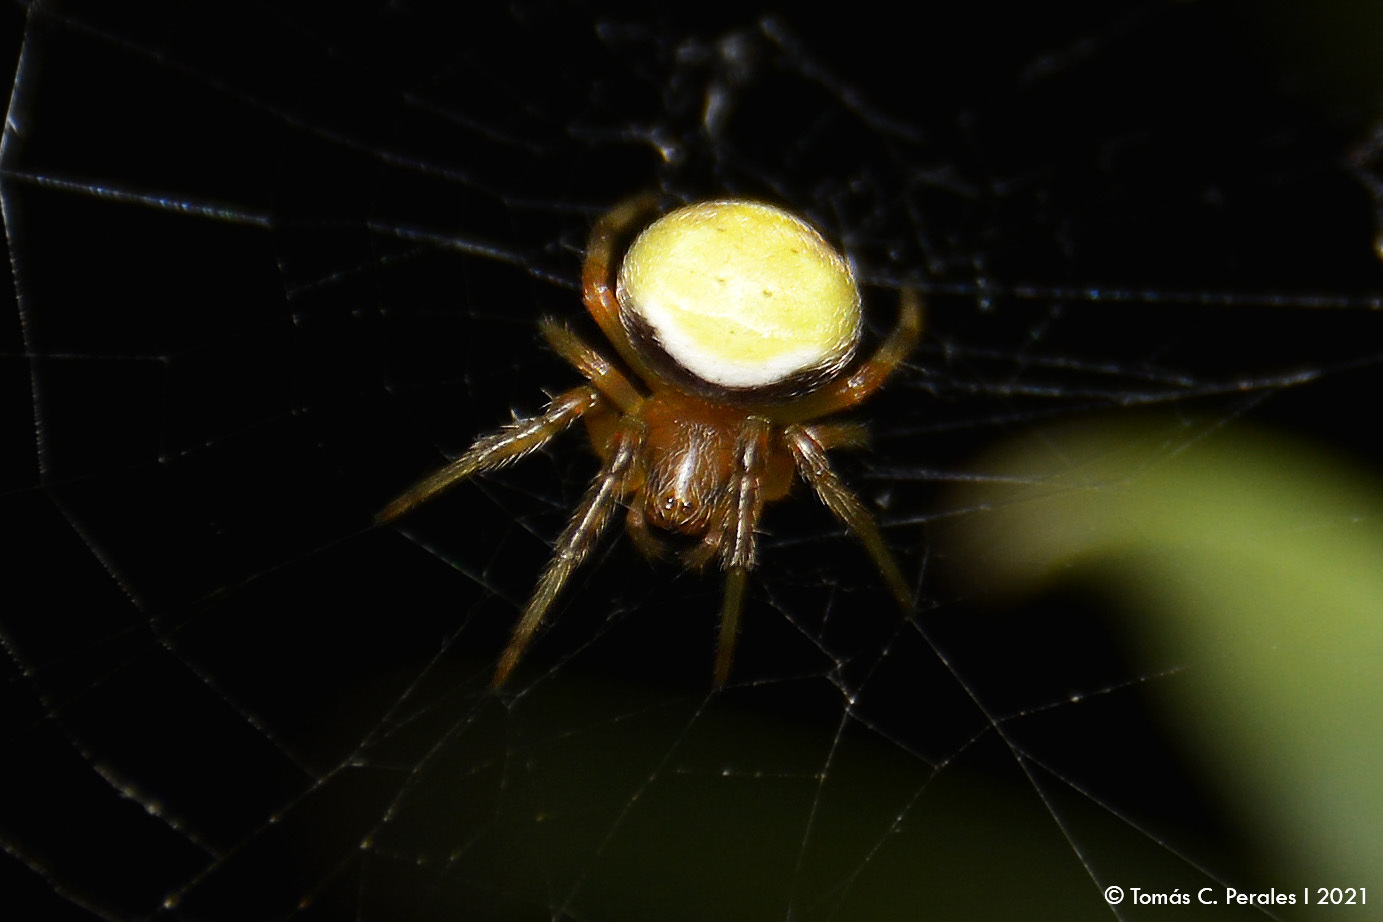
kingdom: Animalia
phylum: Arthropoda
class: Arachnida
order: Araneae
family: Araneidae
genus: Araneus
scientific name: Araneus lathyrinus
